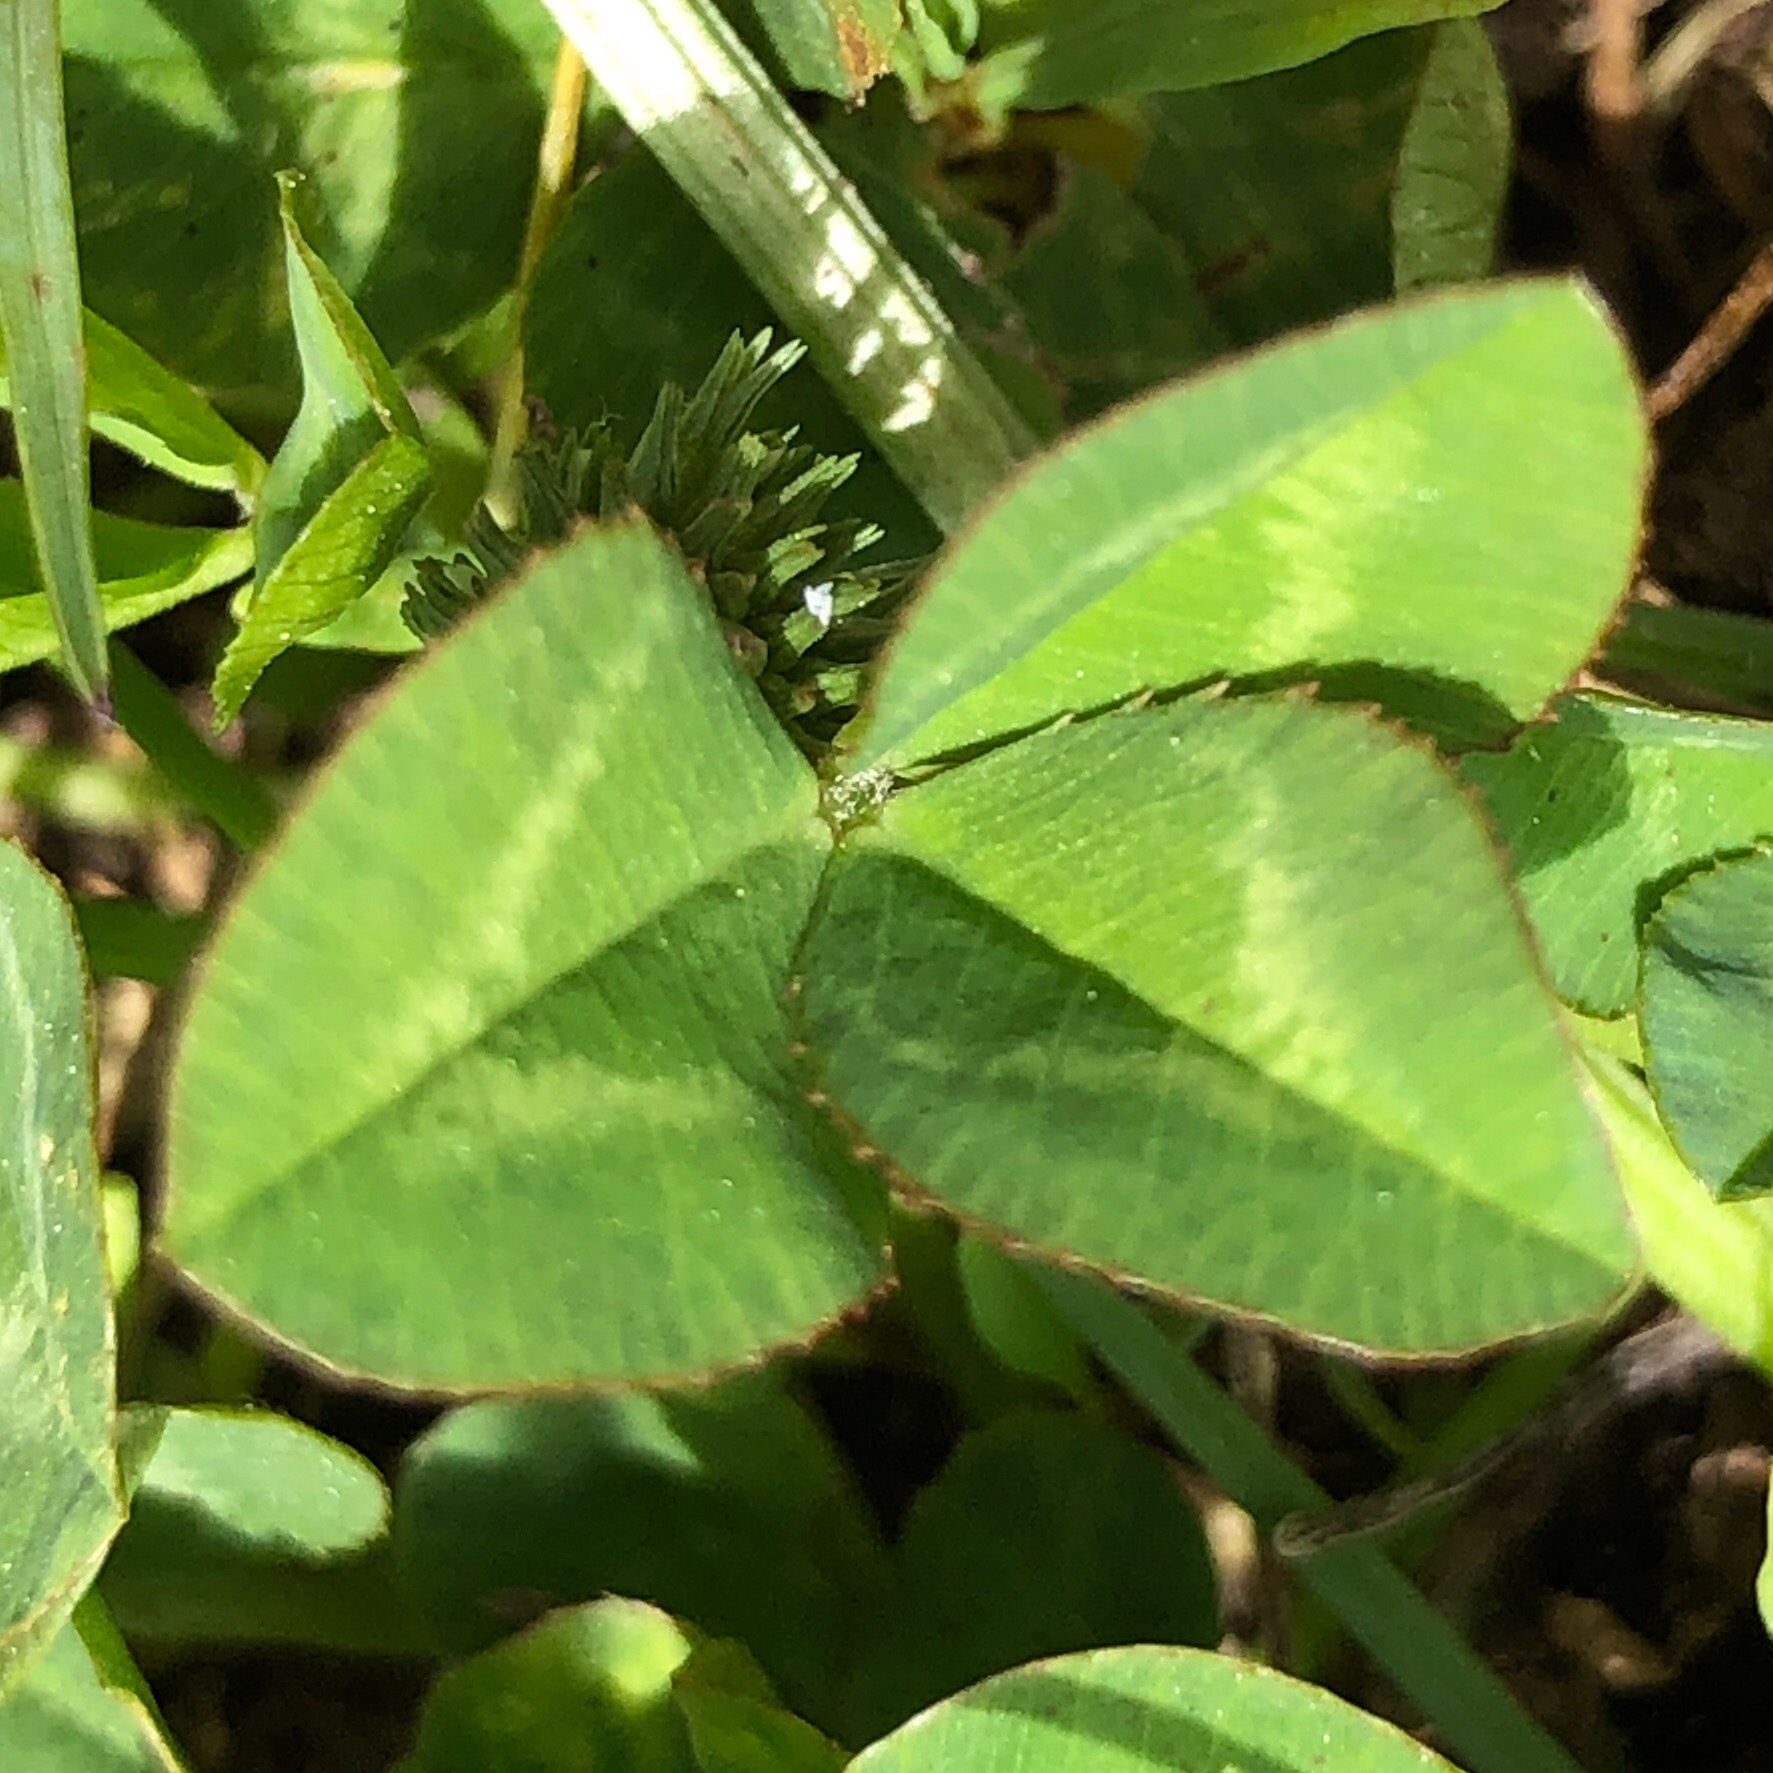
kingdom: Plantae
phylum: Tracheophyta
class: Magnoliopsida
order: Fabales
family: Fabaceae
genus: Trifolium
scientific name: Trifolium repens
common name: White clover
